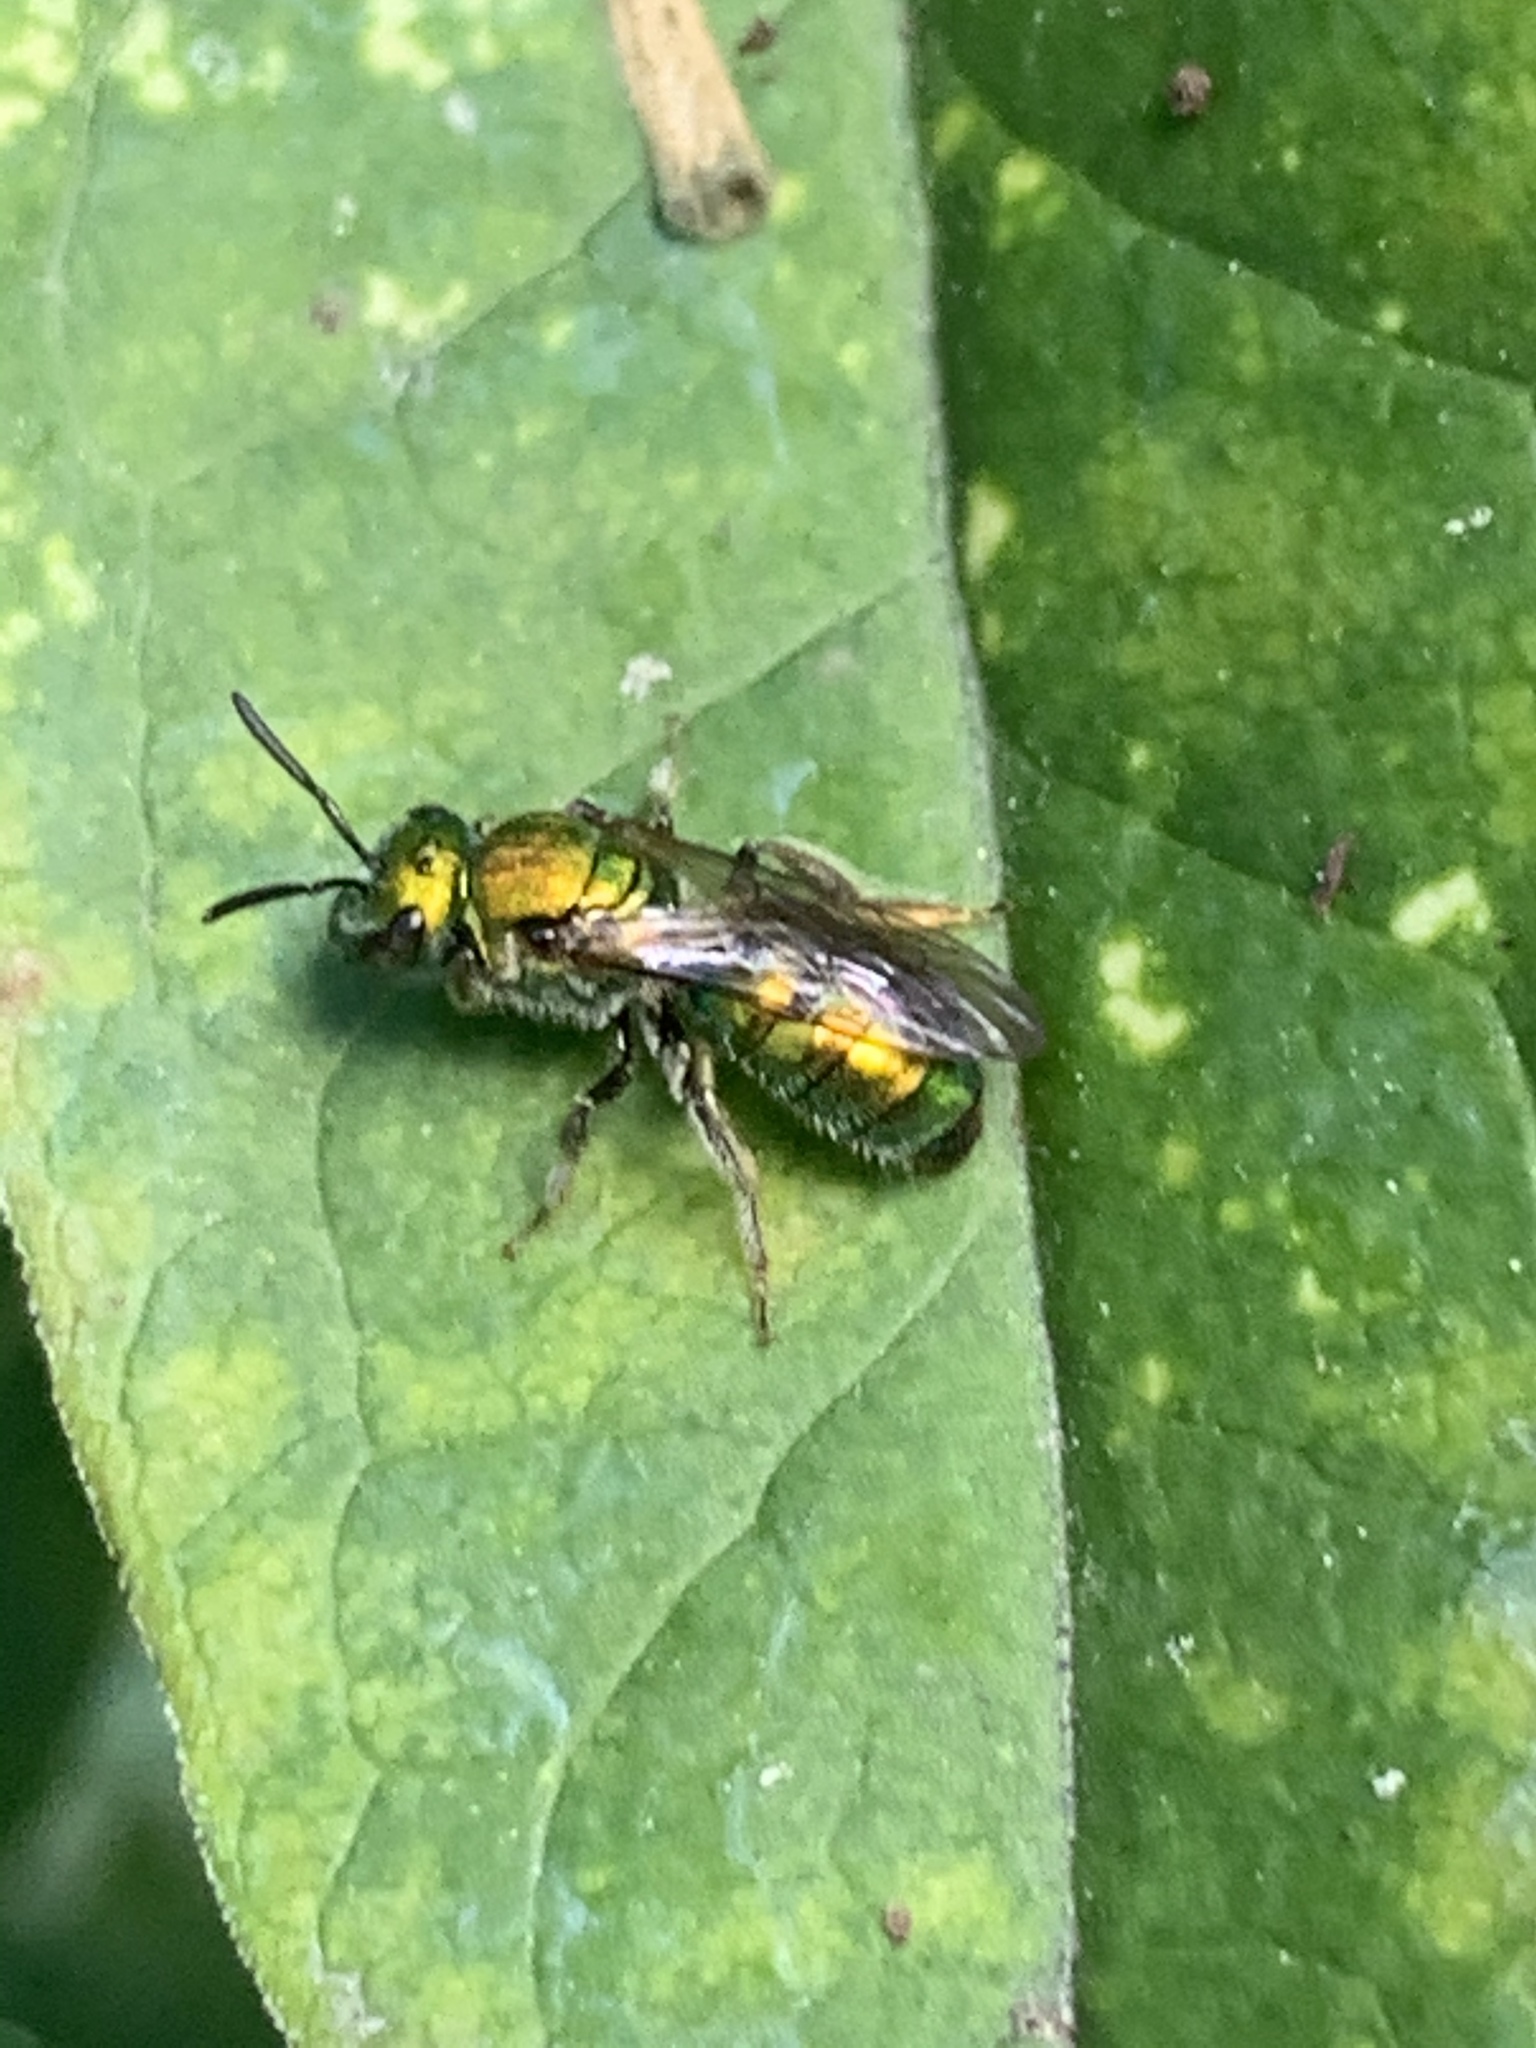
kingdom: Animalia
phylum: Arthropoda
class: Insecta
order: Hymenoptera
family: Halictidae
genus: Augochlora
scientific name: Augochlora pura
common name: Pure green sweat bee
